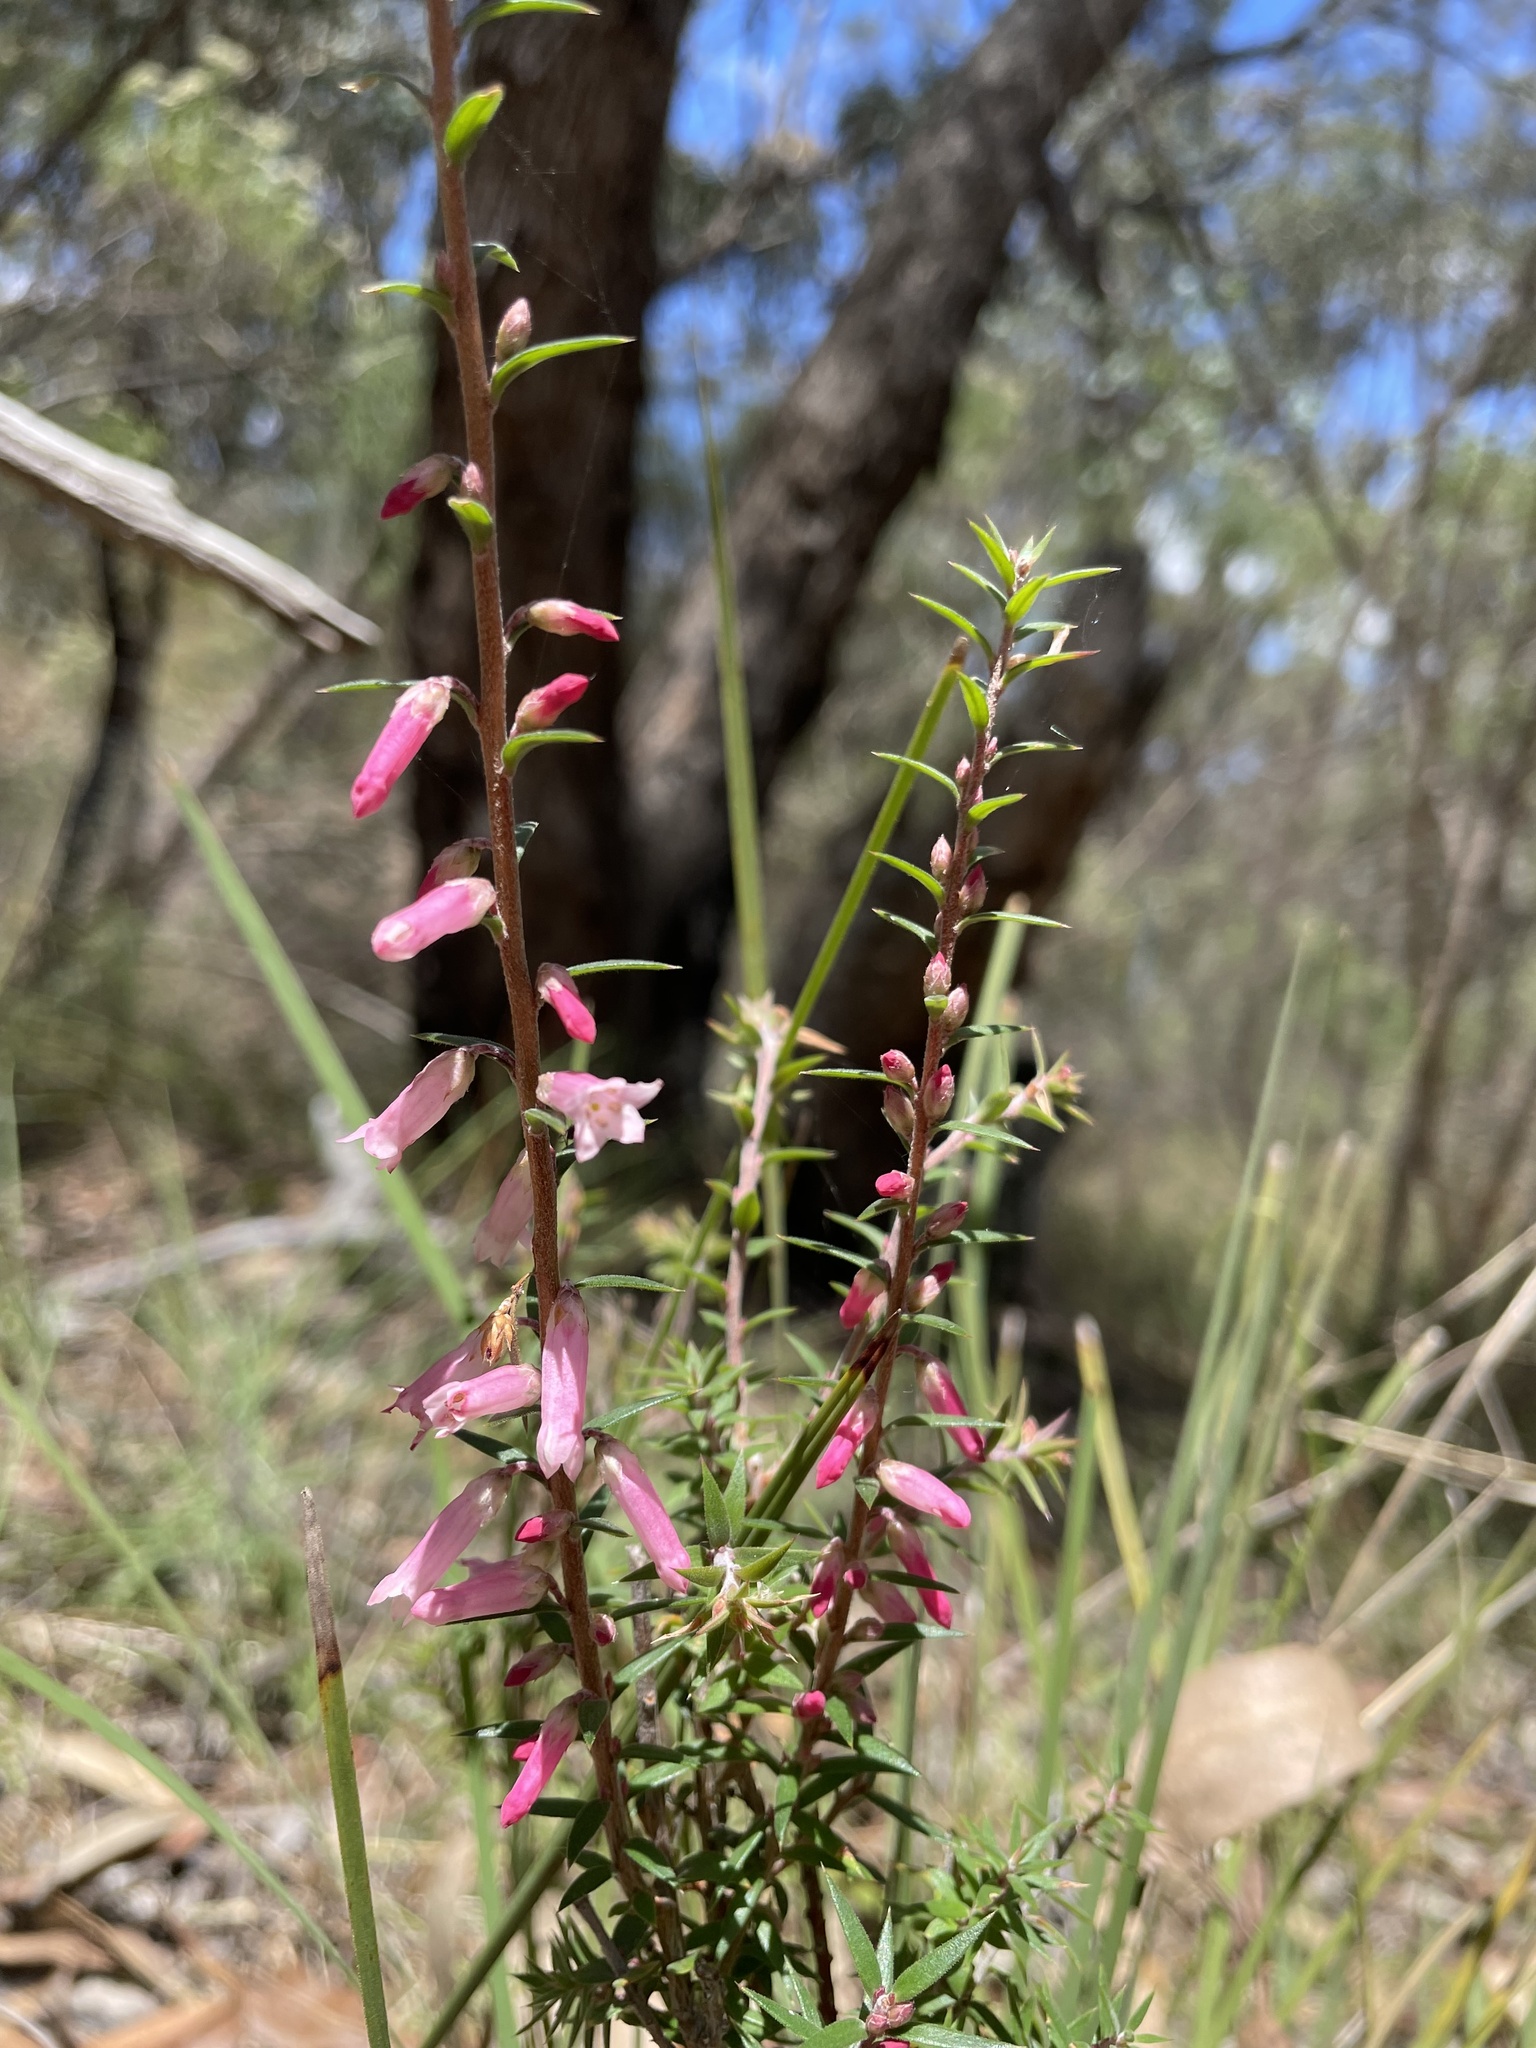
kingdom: Plantae
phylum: Tracheophyta
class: Magnoliopsida
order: Ericales
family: Ericaceae
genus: Epacris
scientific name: Epacris impressa
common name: Common-heath
